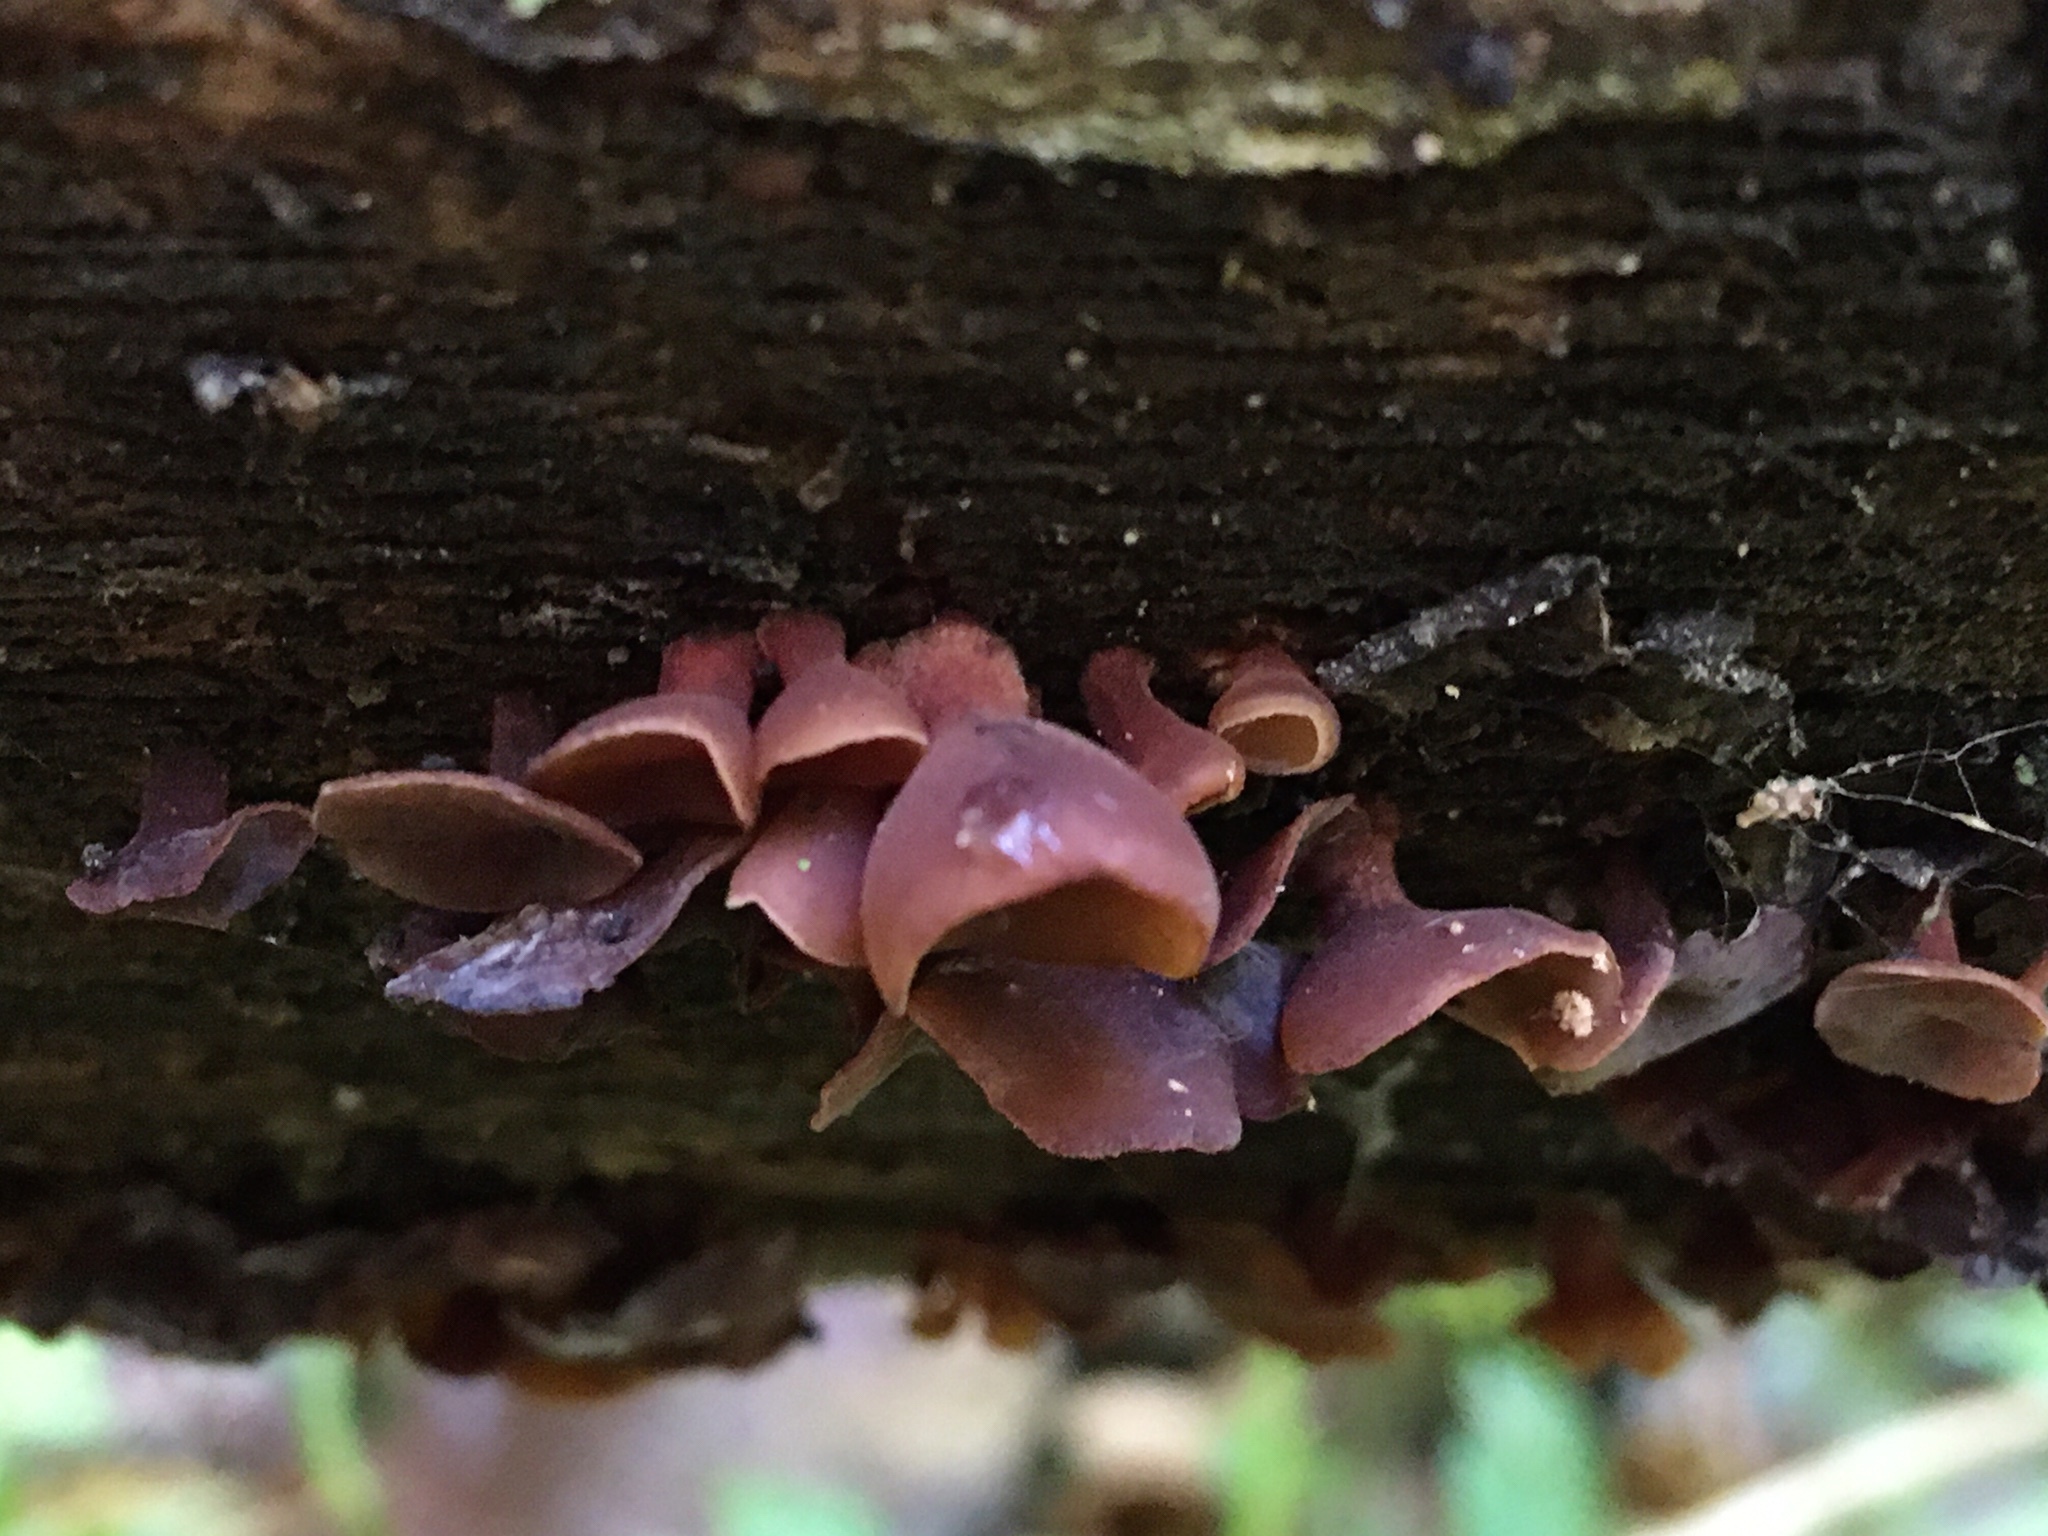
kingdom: Fungi
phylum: Basidiomycota
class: Dacrymycetes
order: Dacrymycetales
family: Dacrymycetaceae
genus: Dacryopinax
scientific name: Dacryopinax elegans
